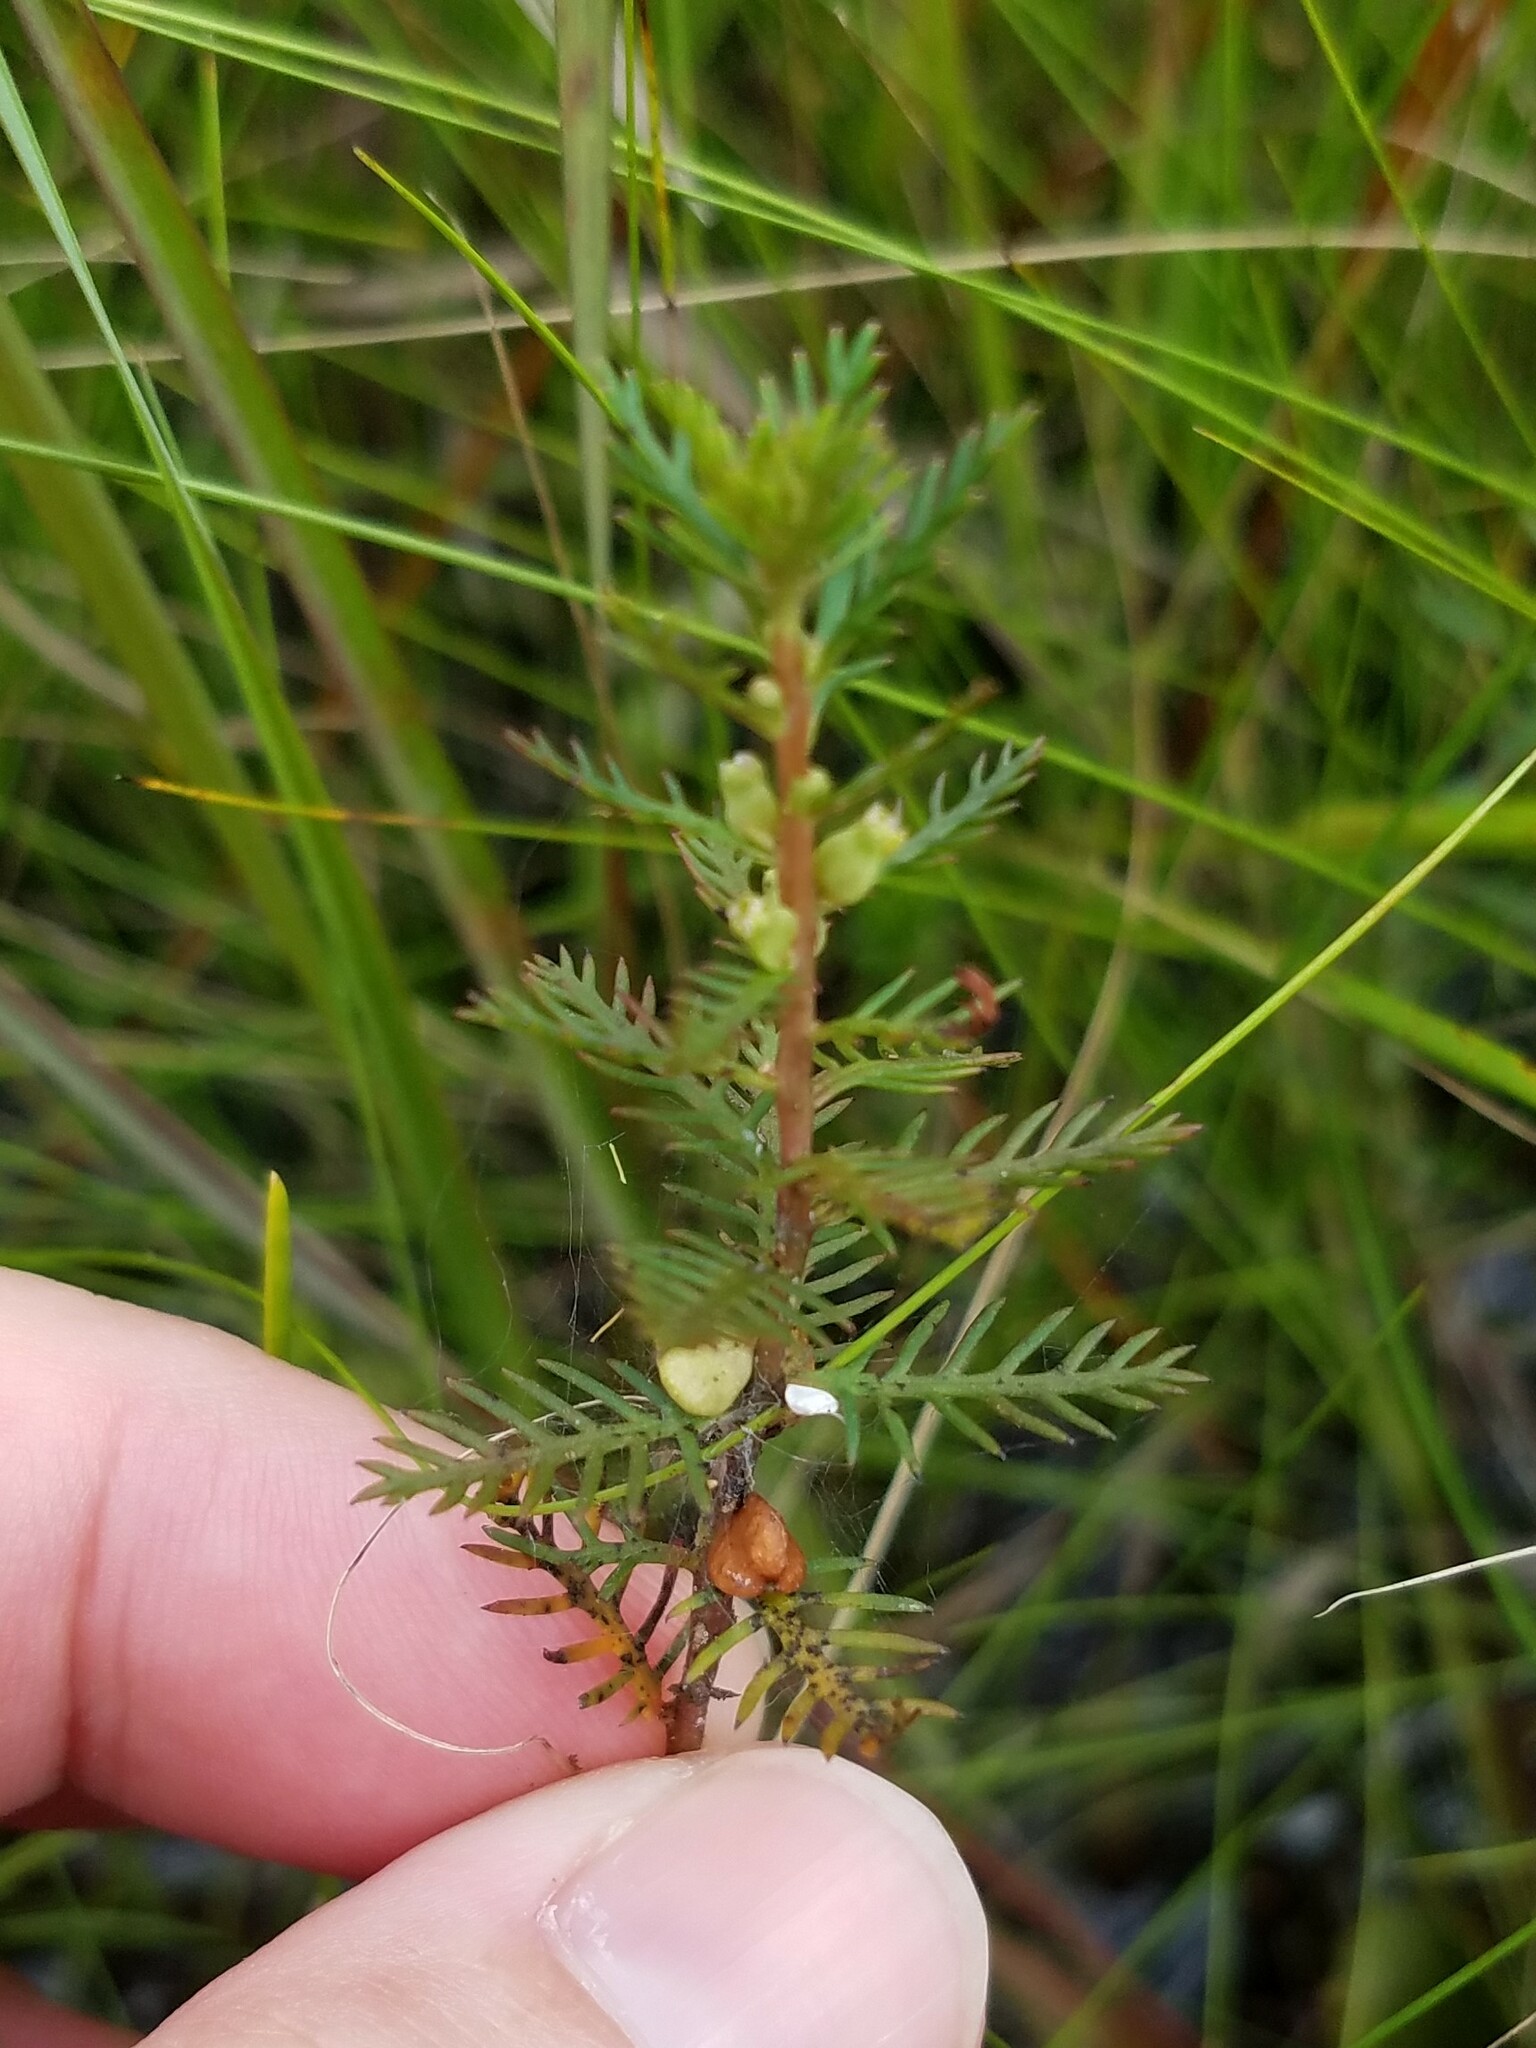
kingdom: Plantae
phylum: Tracheophyta
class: Magnoliopsida
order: Saxifragales
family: Haloragaceae
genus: Proserpinaca
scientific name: Proserpinaca pectinata
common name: Comb-leaved mermaidweed
